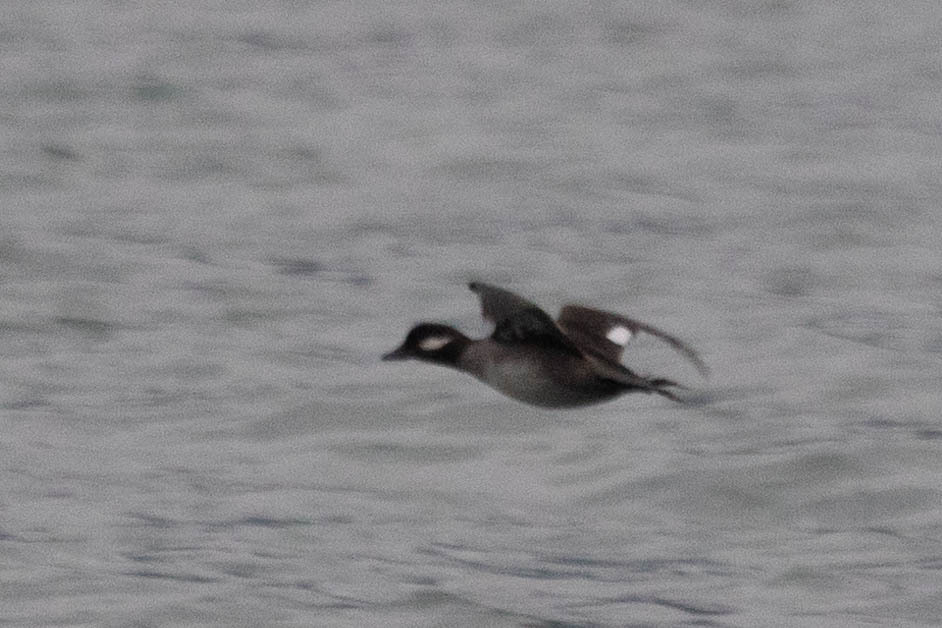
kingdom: Animalia
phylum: Chordata
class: Aves
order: Anseriformes
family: Anatidae
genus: Bucephala
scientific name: Bucephala albeola
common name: Bufflehead
